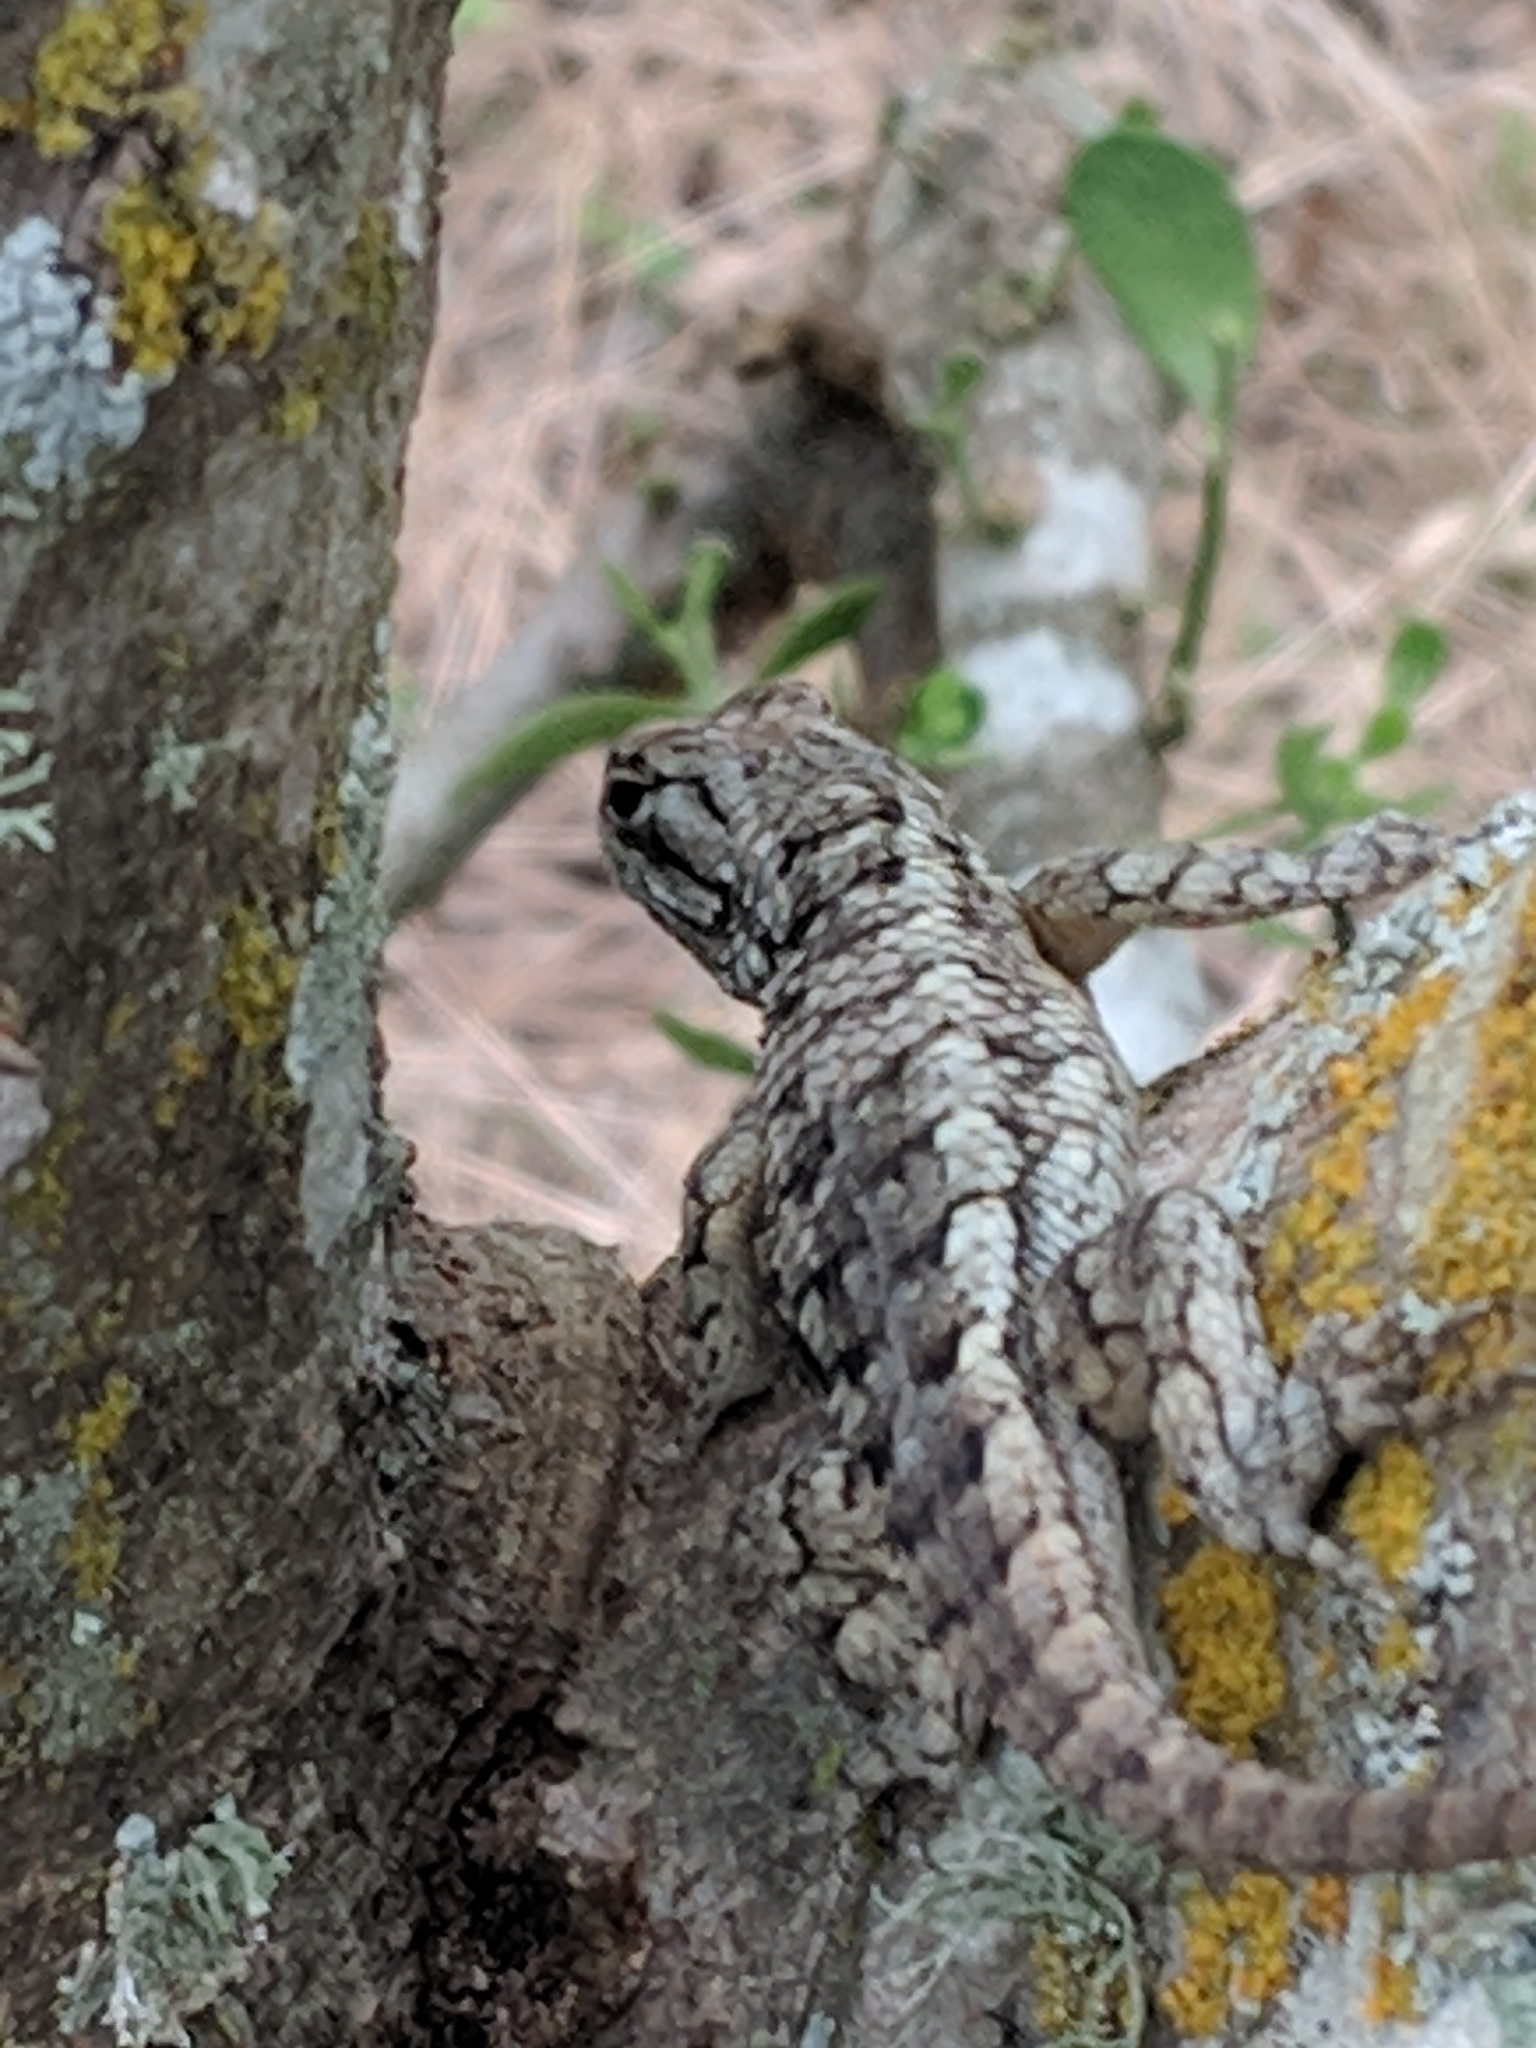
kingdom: Animalia
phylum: Chordata
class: Squamata
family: Phrynosomatidae
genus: Sceloporus
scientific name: Sceloporus olivaceus
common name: Texas spiny lizard
